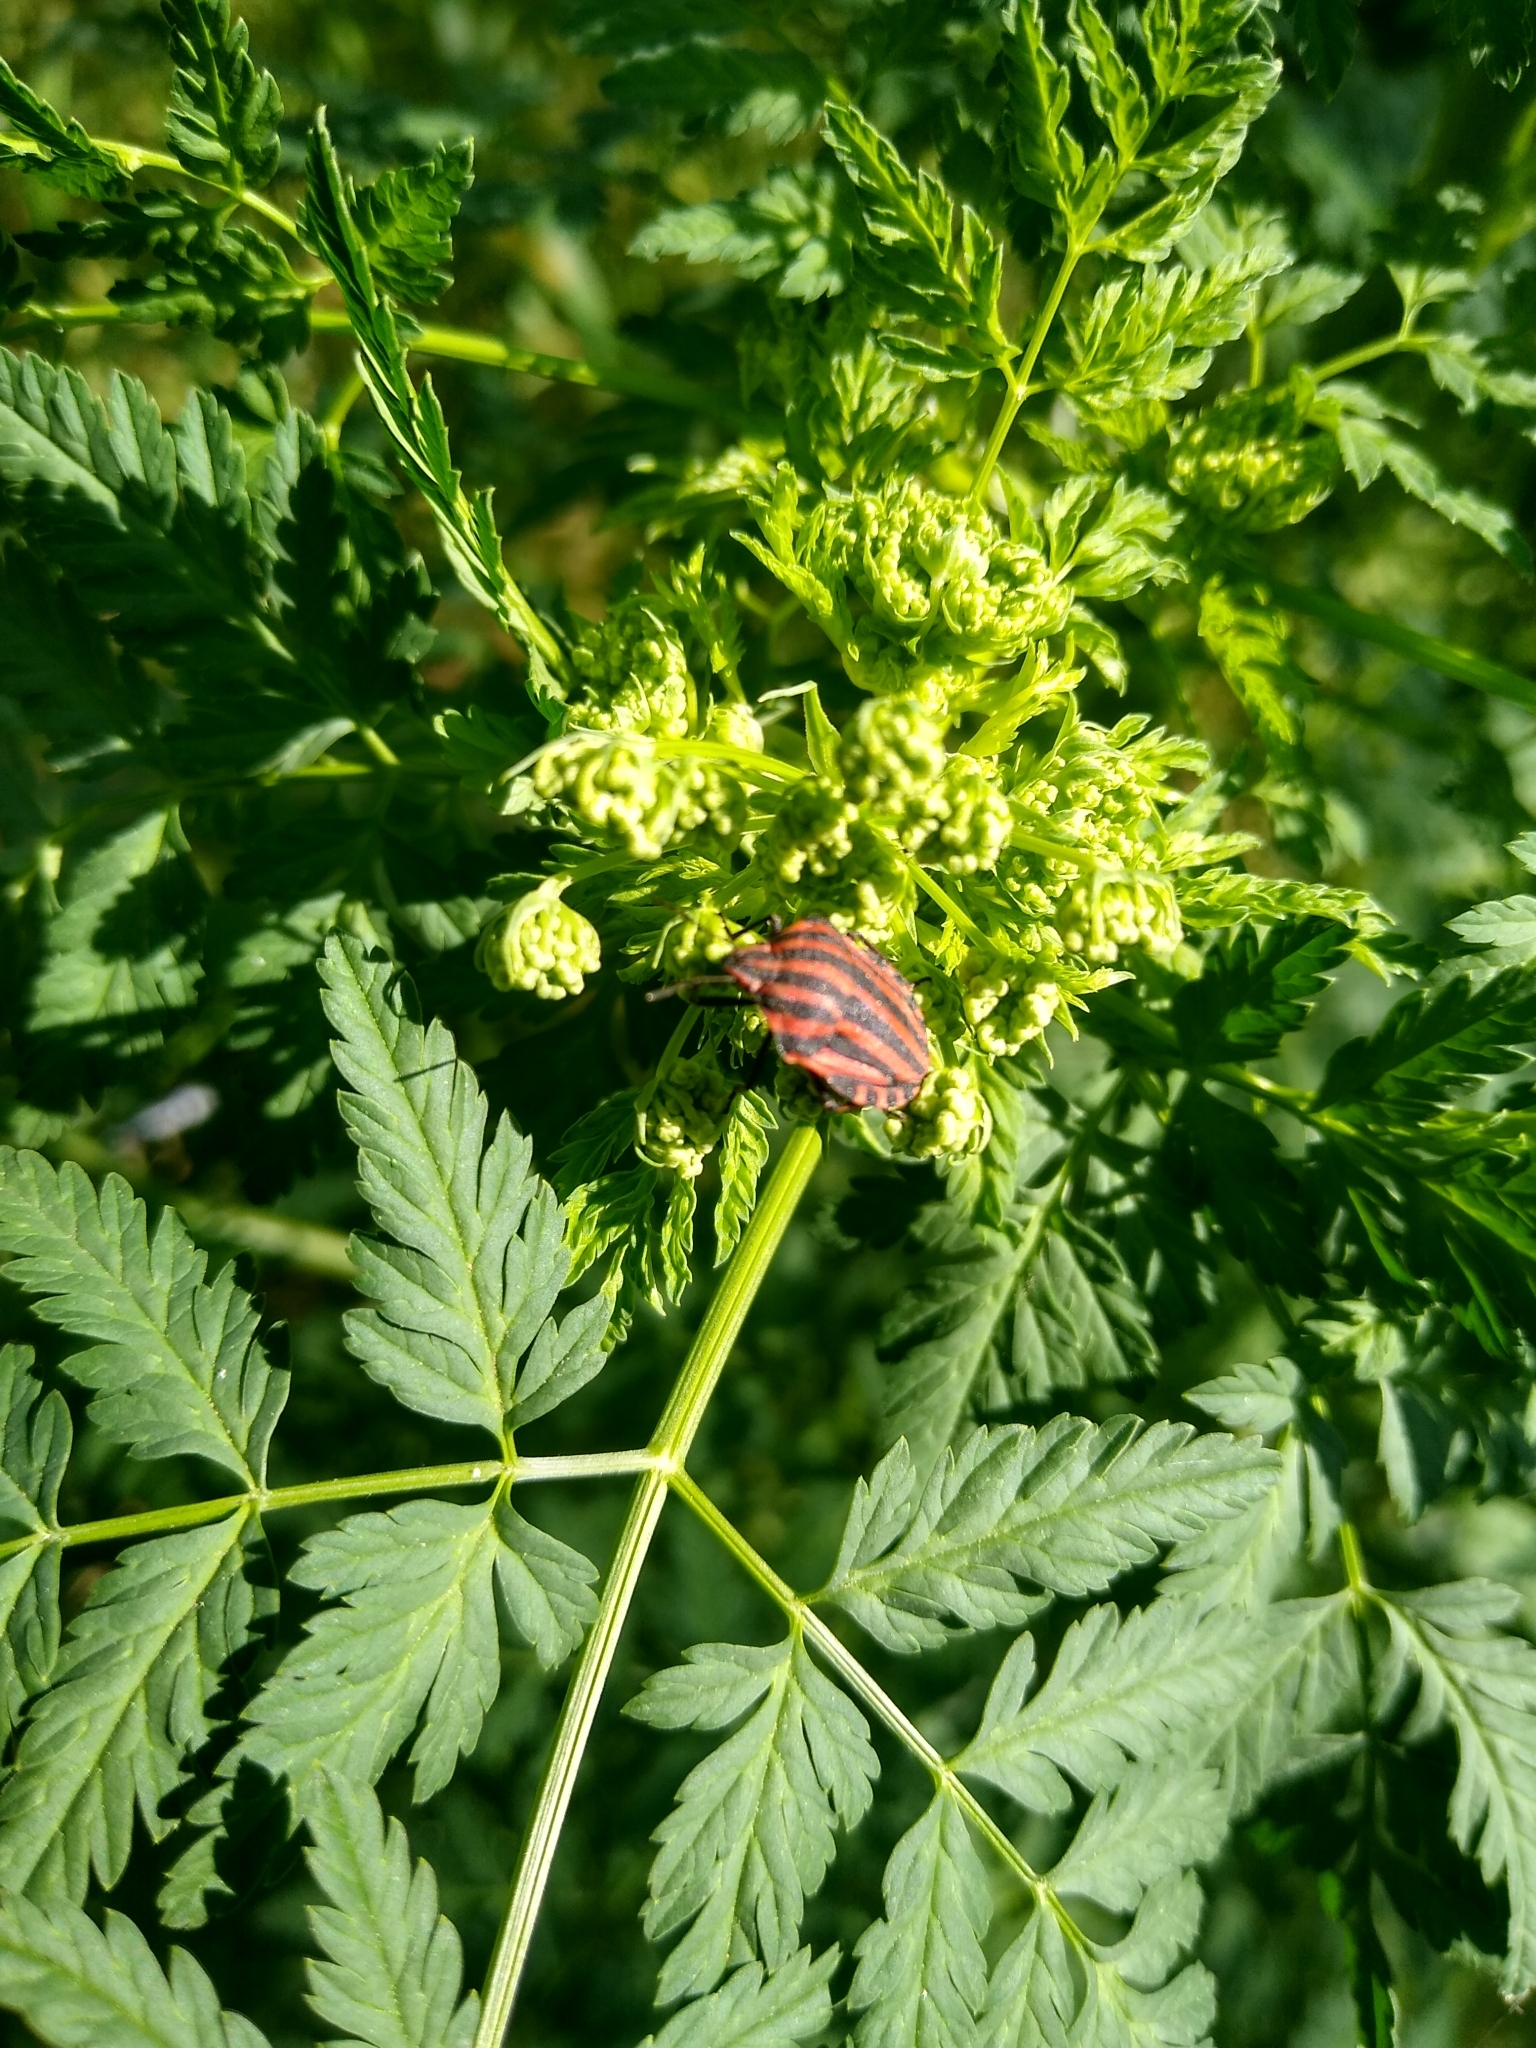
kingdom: Animalia
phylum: Arthropoda
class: Insecta
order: Hemiptera
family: Pentatomidae
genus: Graphosoma
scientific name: Graphosoma italicum
